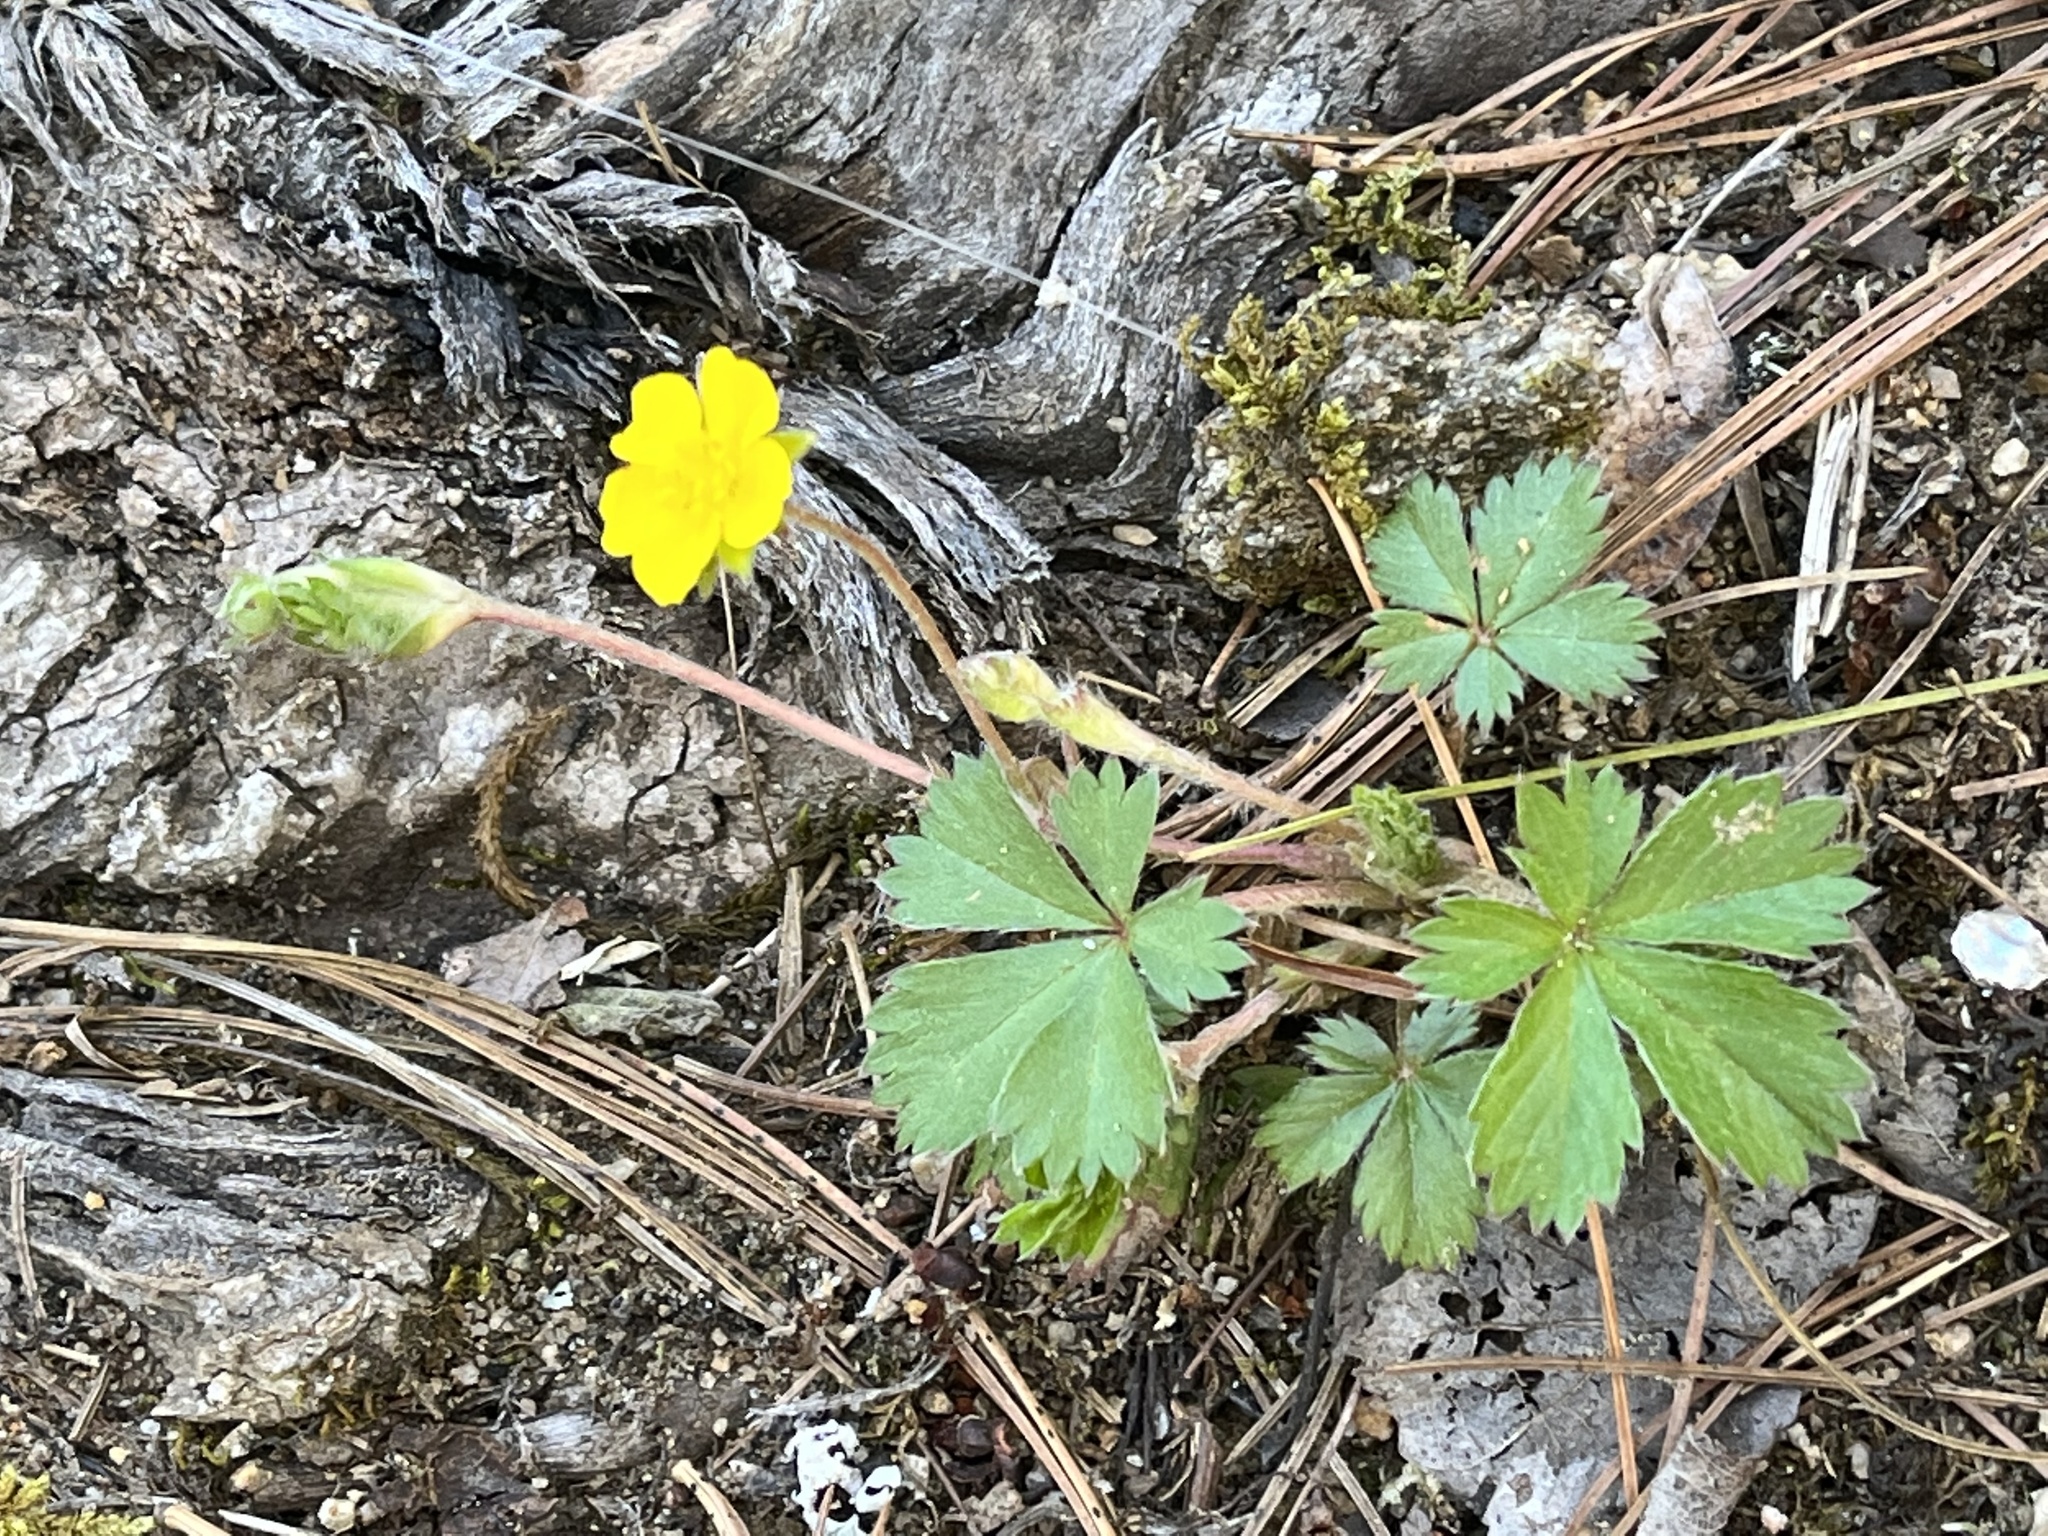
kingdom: Plantae
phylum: Tracheophyta
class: Magnoliopsida
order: Rosales
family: Rosaceae
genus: Potentilla
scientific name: Potentilla canadensis
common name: Canada cinquefoil
